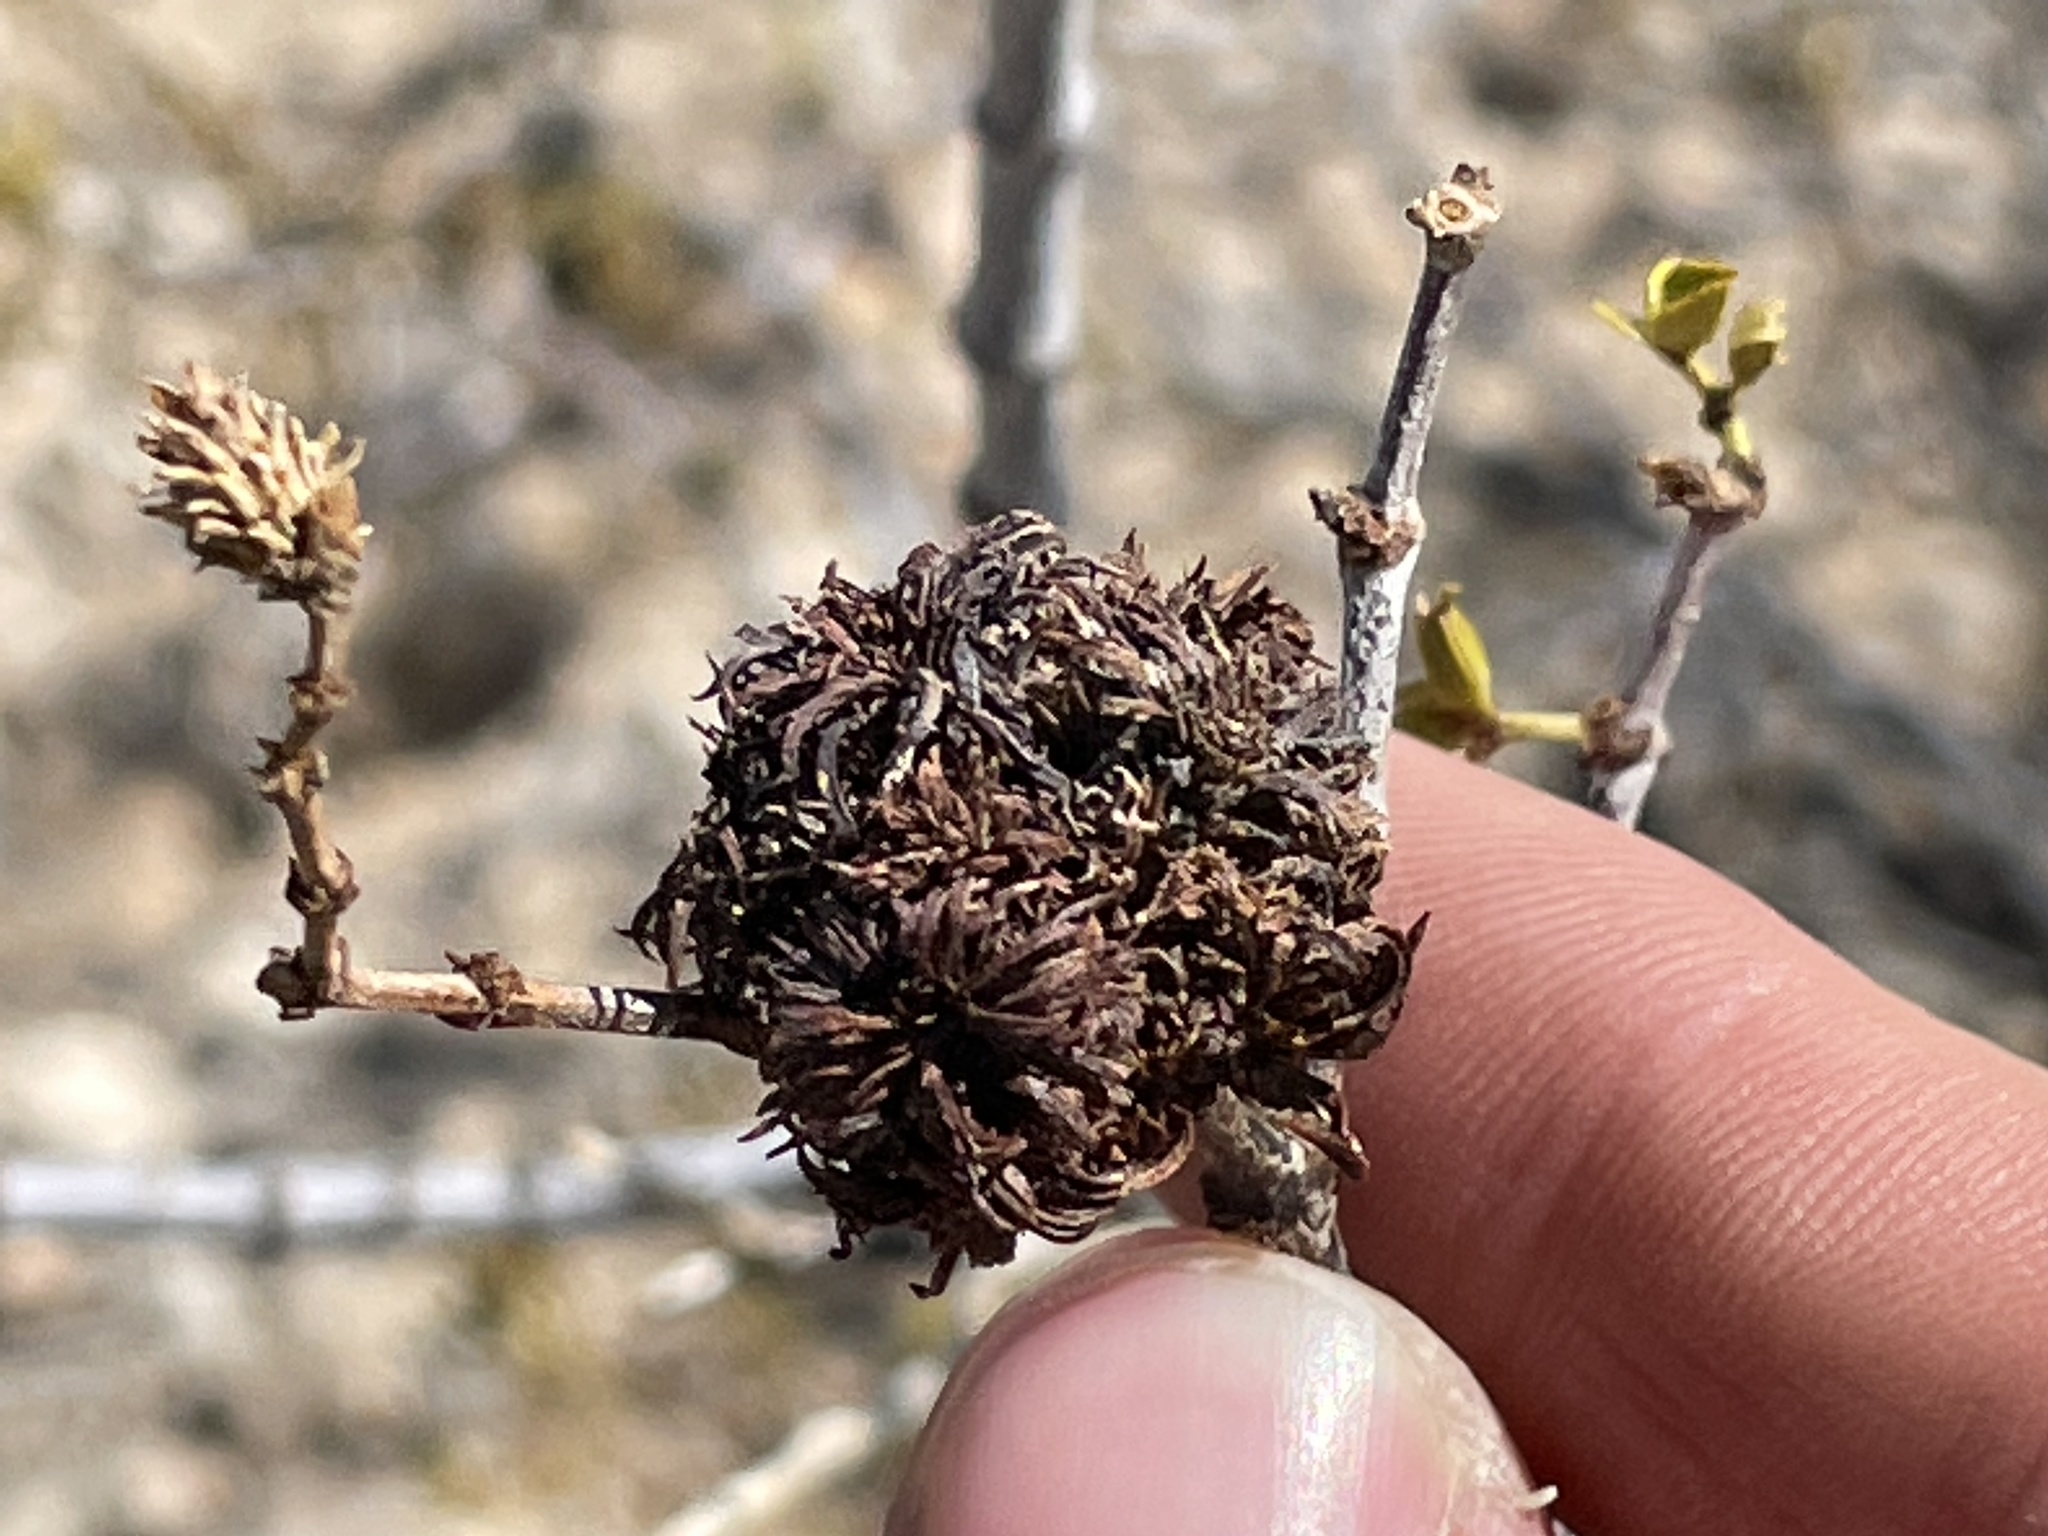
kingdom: Animalia
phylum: Arthropoda
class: Insecta
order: Diptera
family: Cecidomyiidae
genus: Asphondylia
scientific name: Asphondylia auripila
